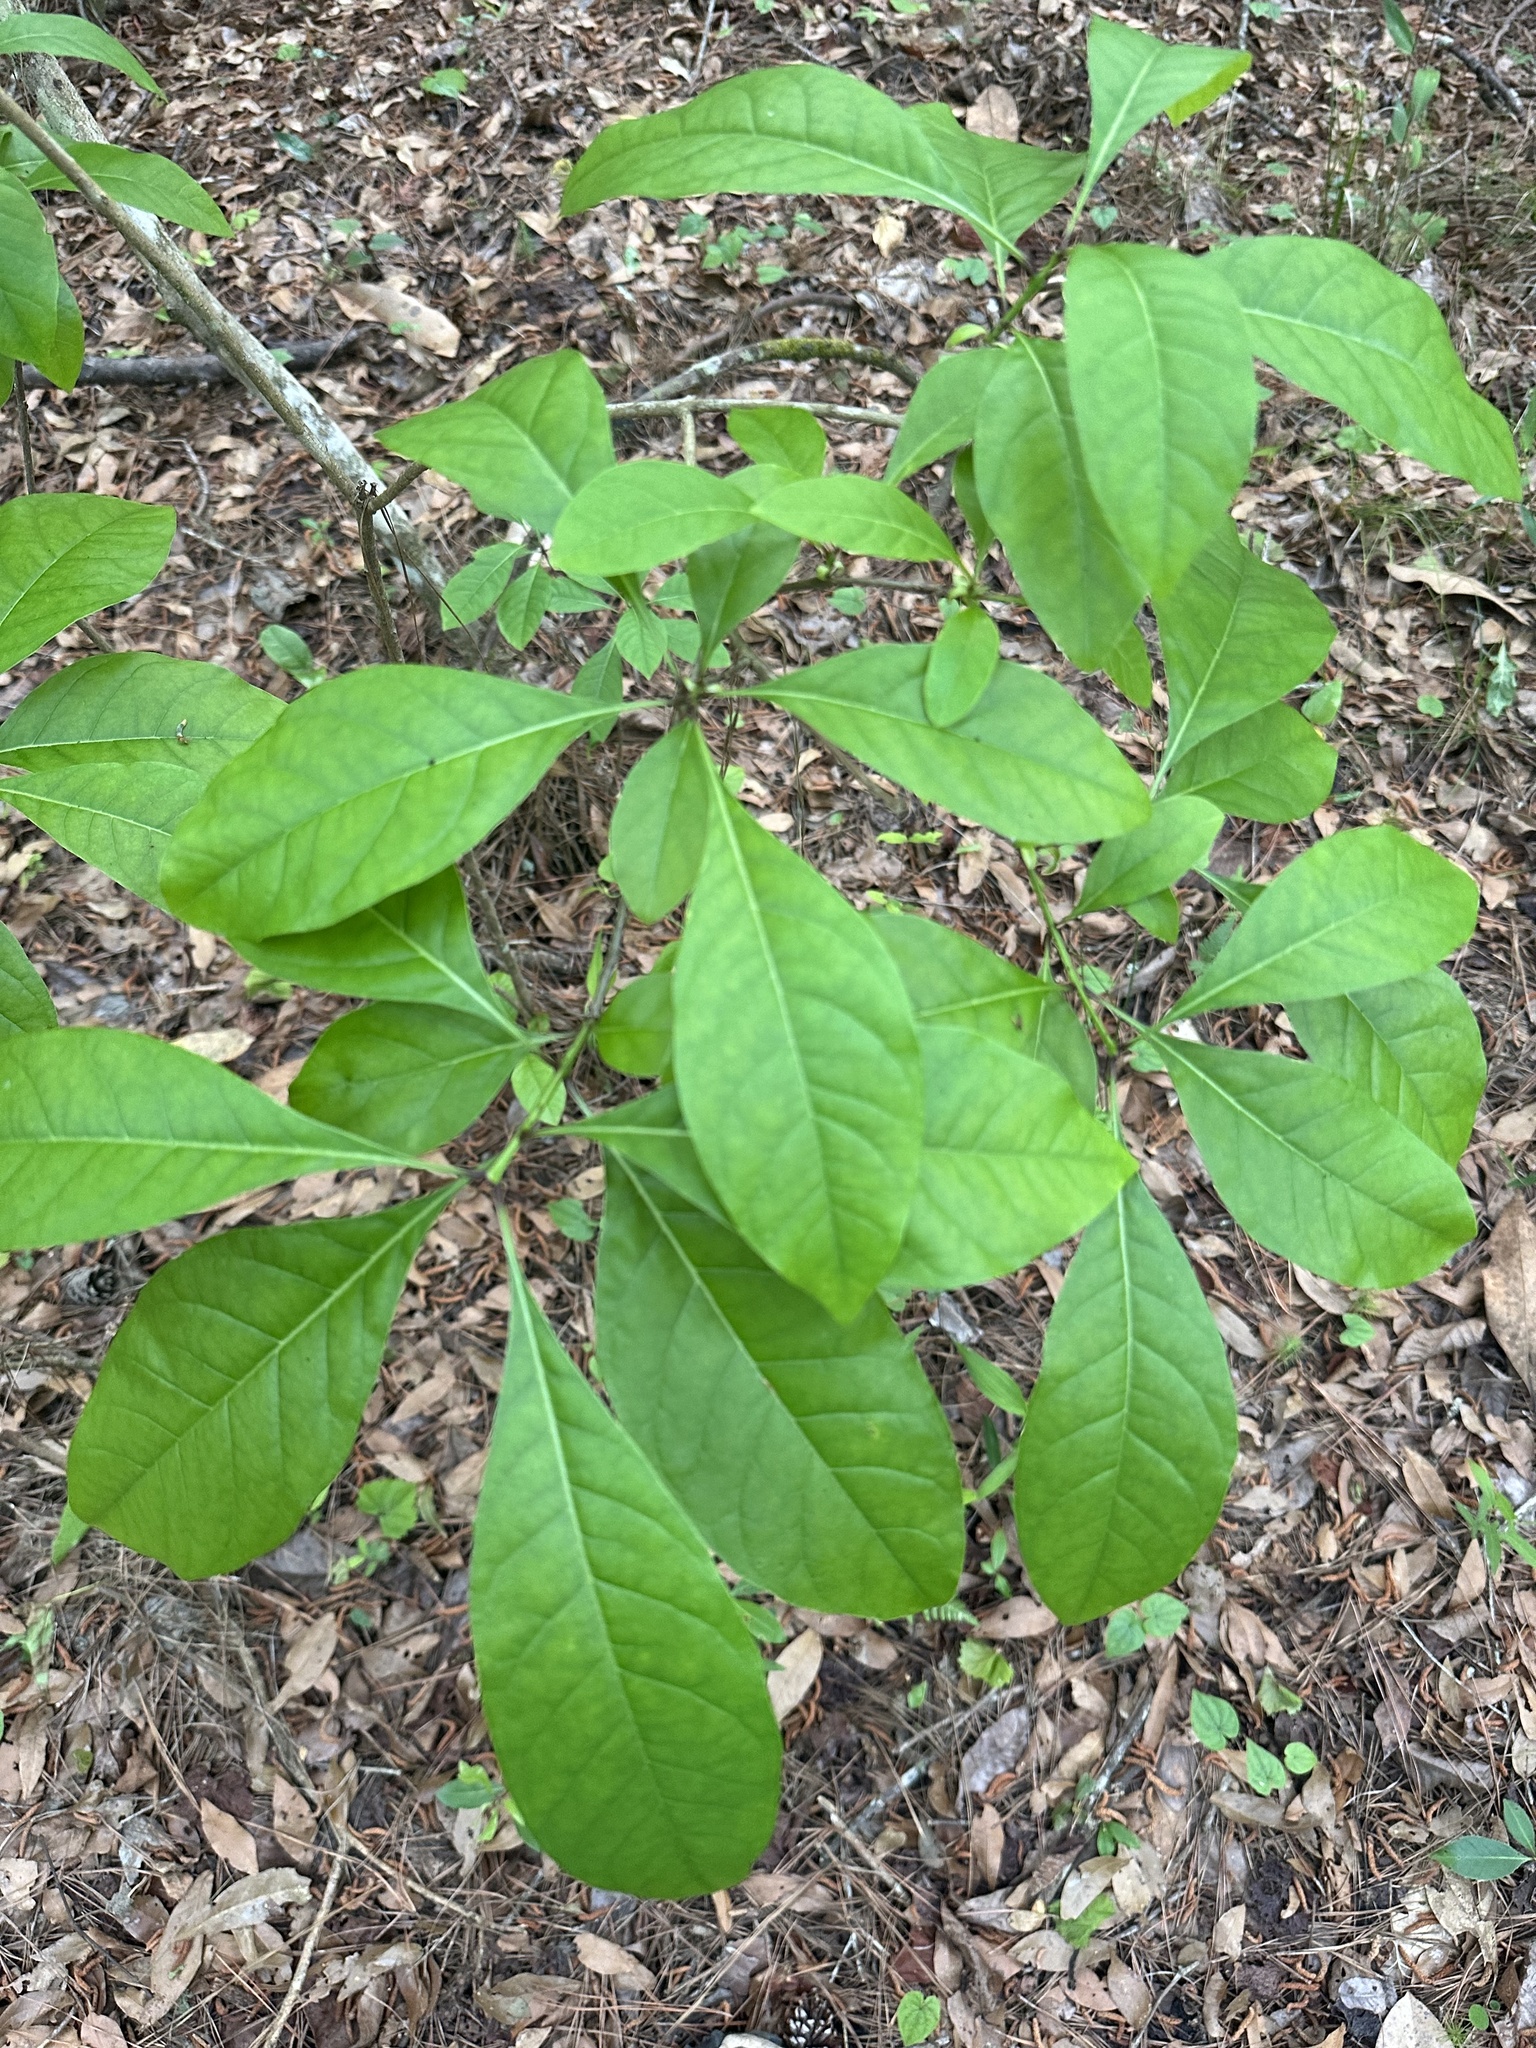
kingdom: Plantae
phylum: Tracheophyta
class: Magnoliopsida
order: Lamiales
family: Oleaceae
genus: Chionanthus
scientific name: Chionanthus virginicus
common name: American fringetree
